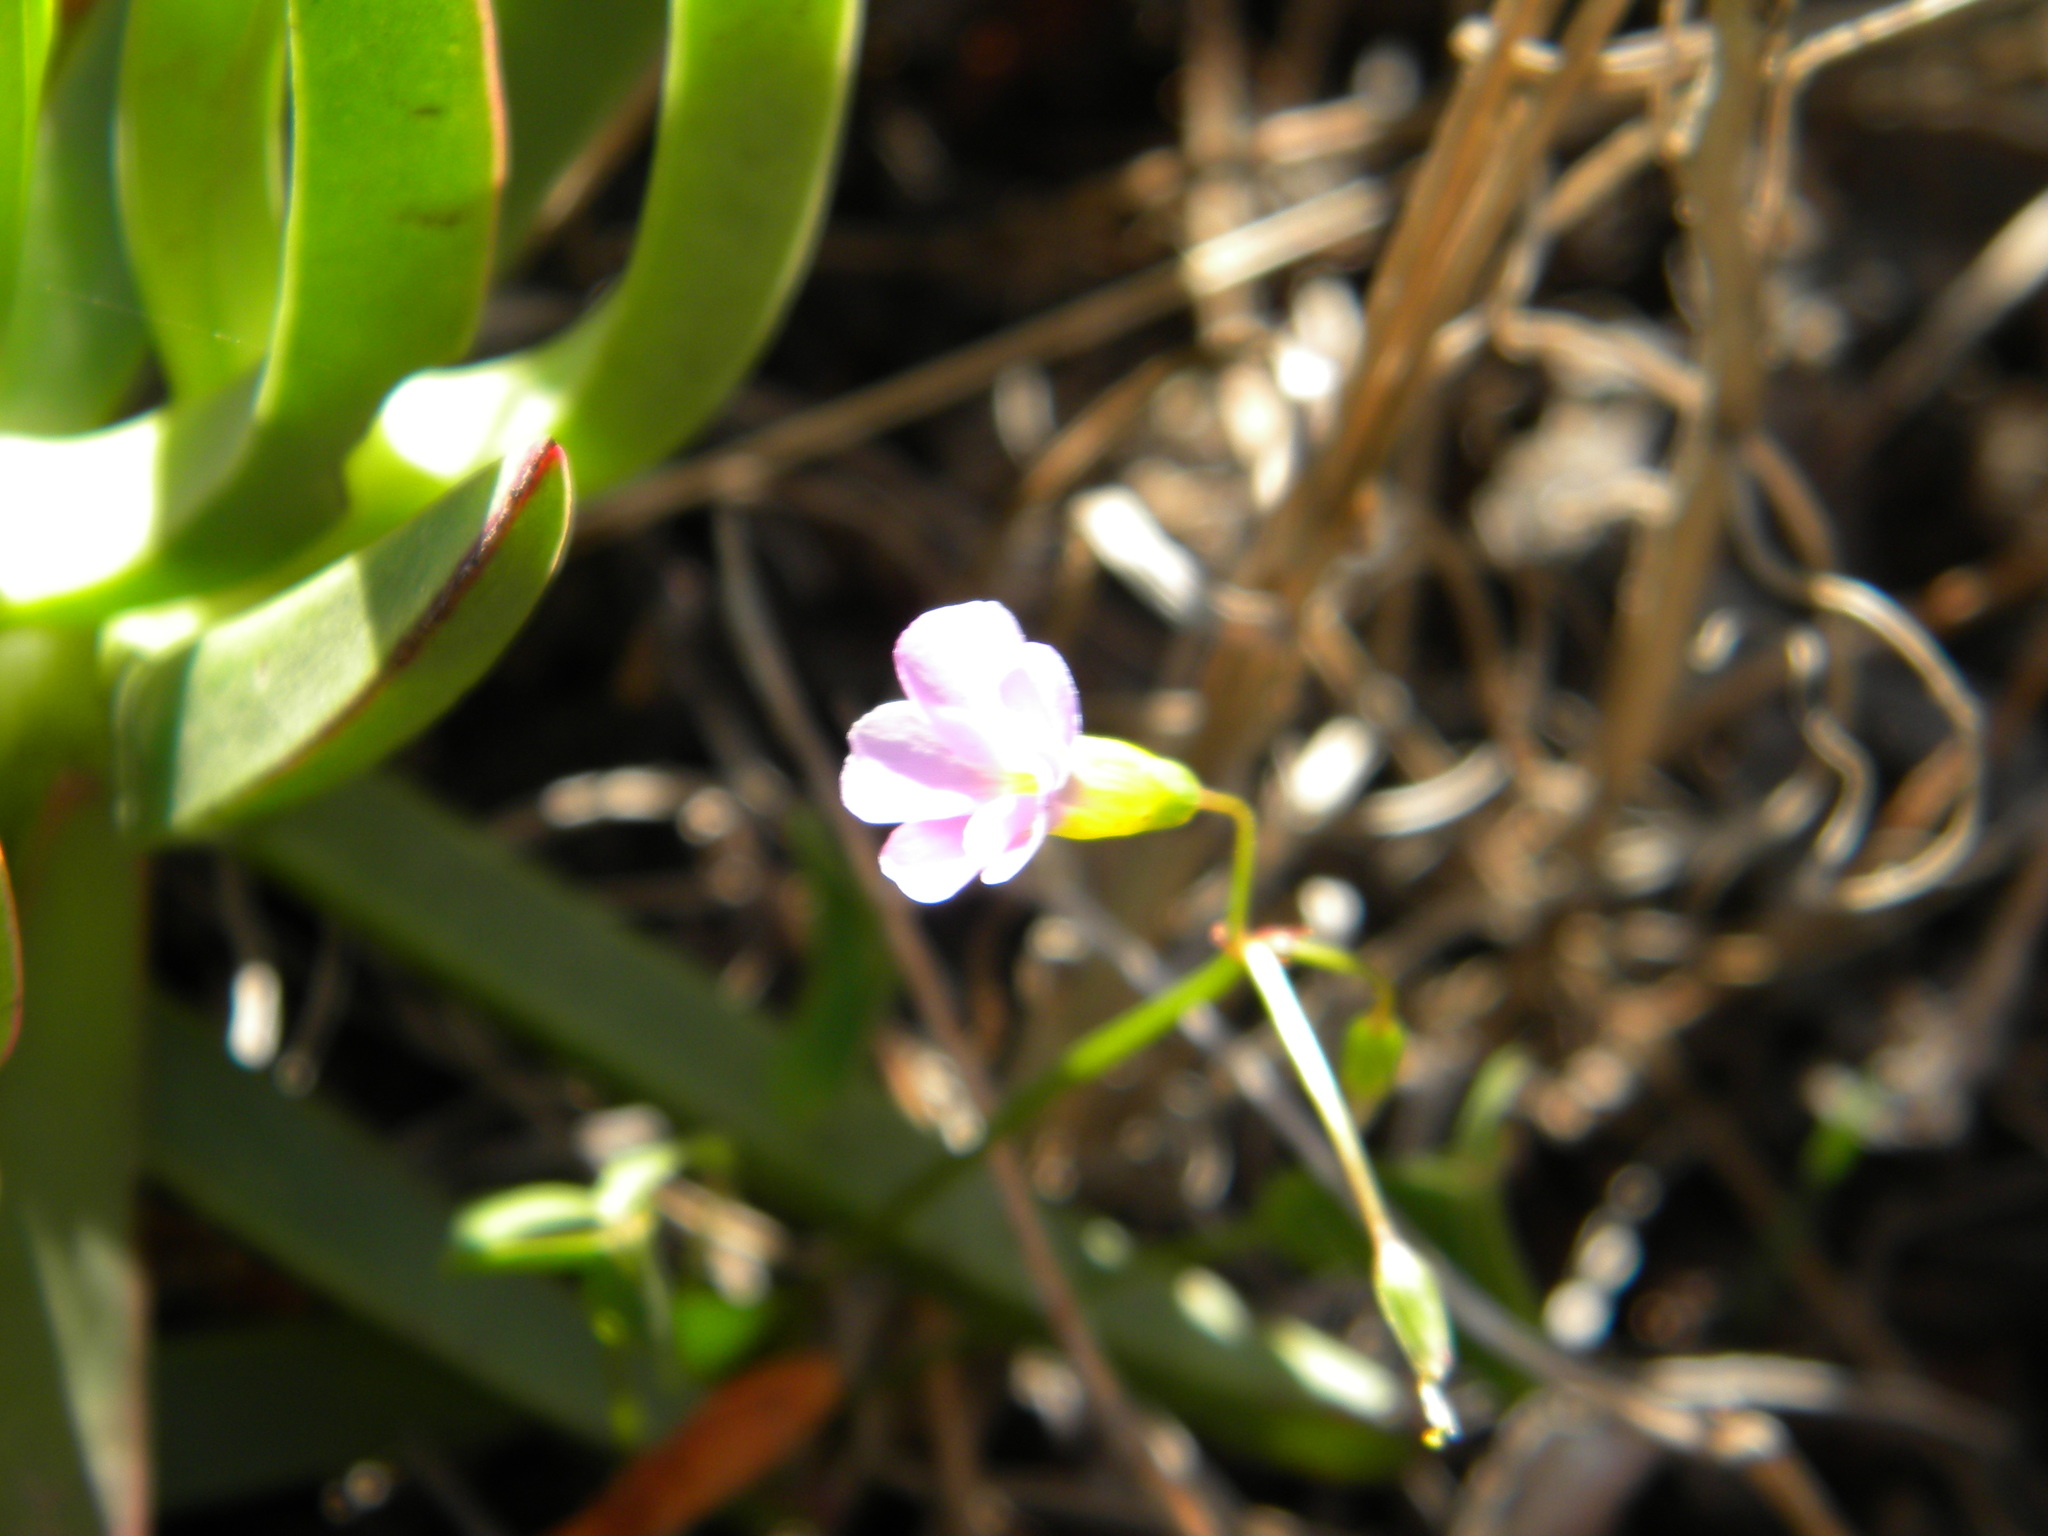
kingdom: Plantae
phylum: Tracheophyta
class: Magnoliopsida
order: Oxalidales
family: Oxalidaceae
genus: Oxalis
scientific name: Oxalis caprina
